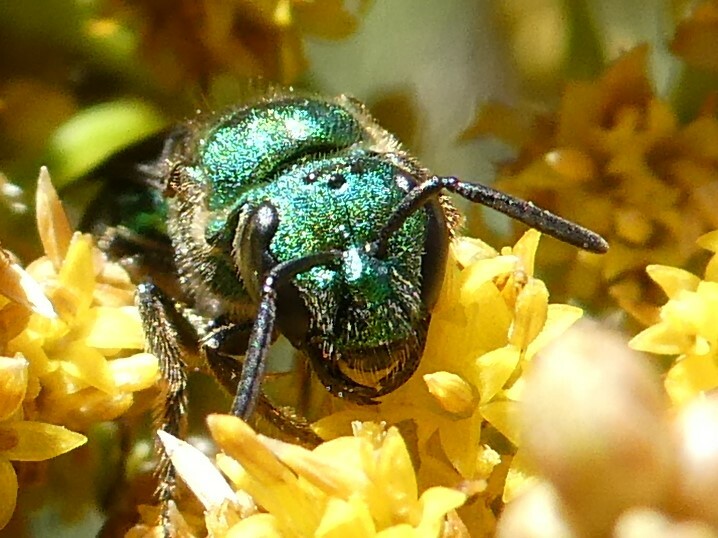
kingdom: Animalia
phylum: Arthropoda
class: Insecta
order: Hymenoptera
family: Halictidae
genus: Augochlora
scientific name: Augochlora pura
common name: Pure green sweat bee
